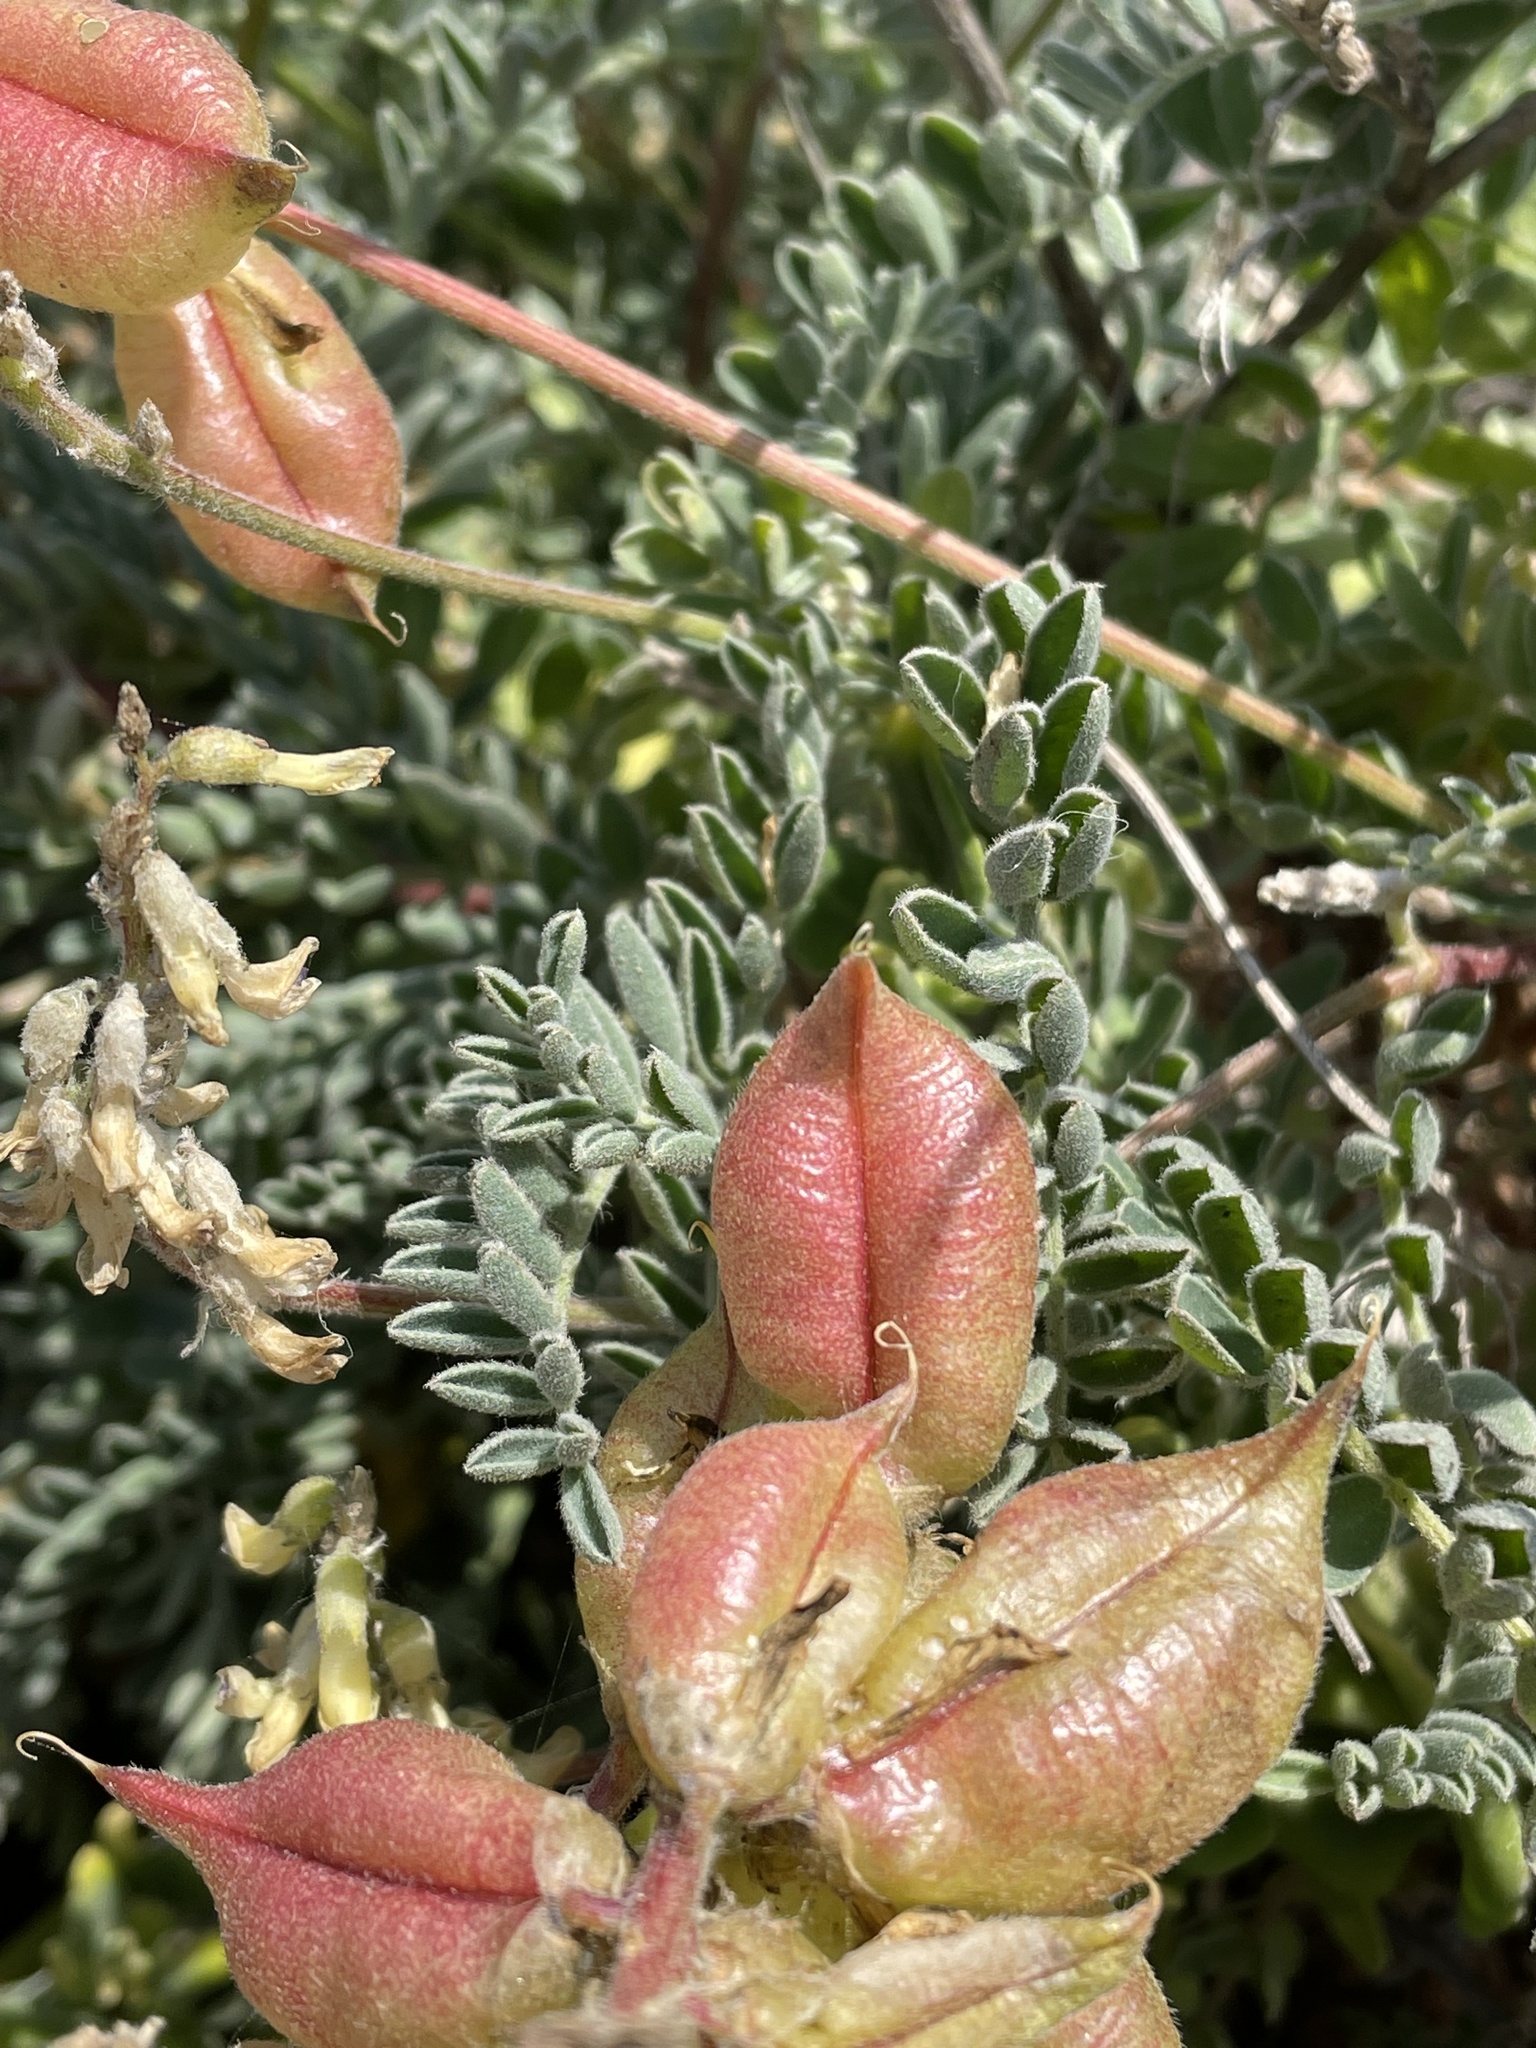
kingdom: Plantae
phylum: Tracheophyta
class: Magnoliopsida
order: Fabales
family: Fabaceae
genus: Astragalus
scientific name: Astragalus nuttallii
